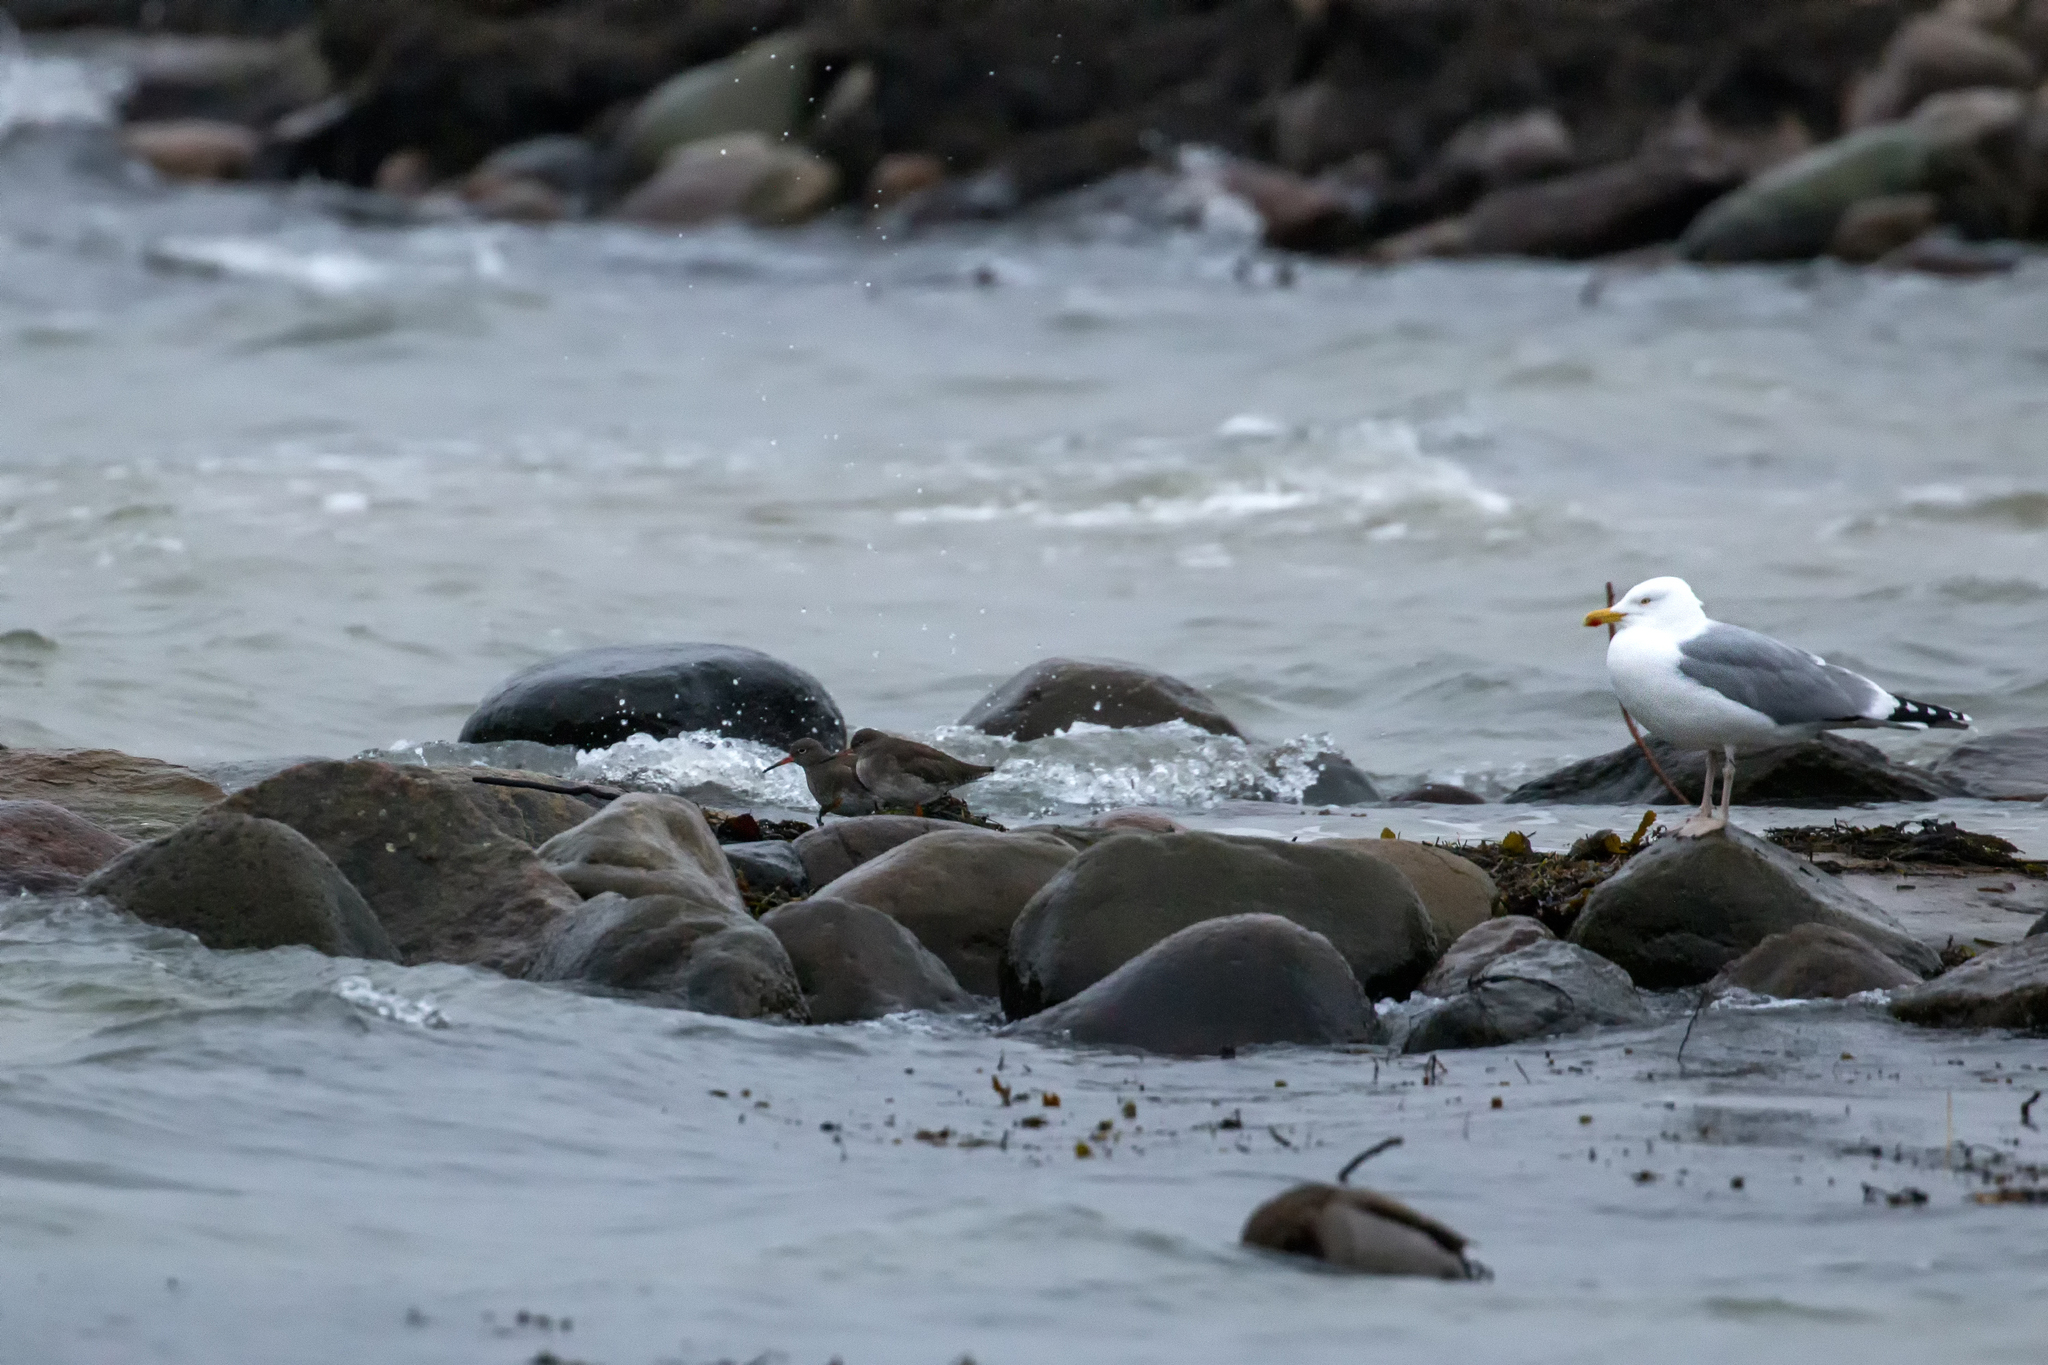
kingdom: Animalia
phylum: Chordata
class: Aves
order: Charadriiformes
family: Scolopacidae
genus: Tringa
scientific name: Tringa totanus
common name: Common redshank
